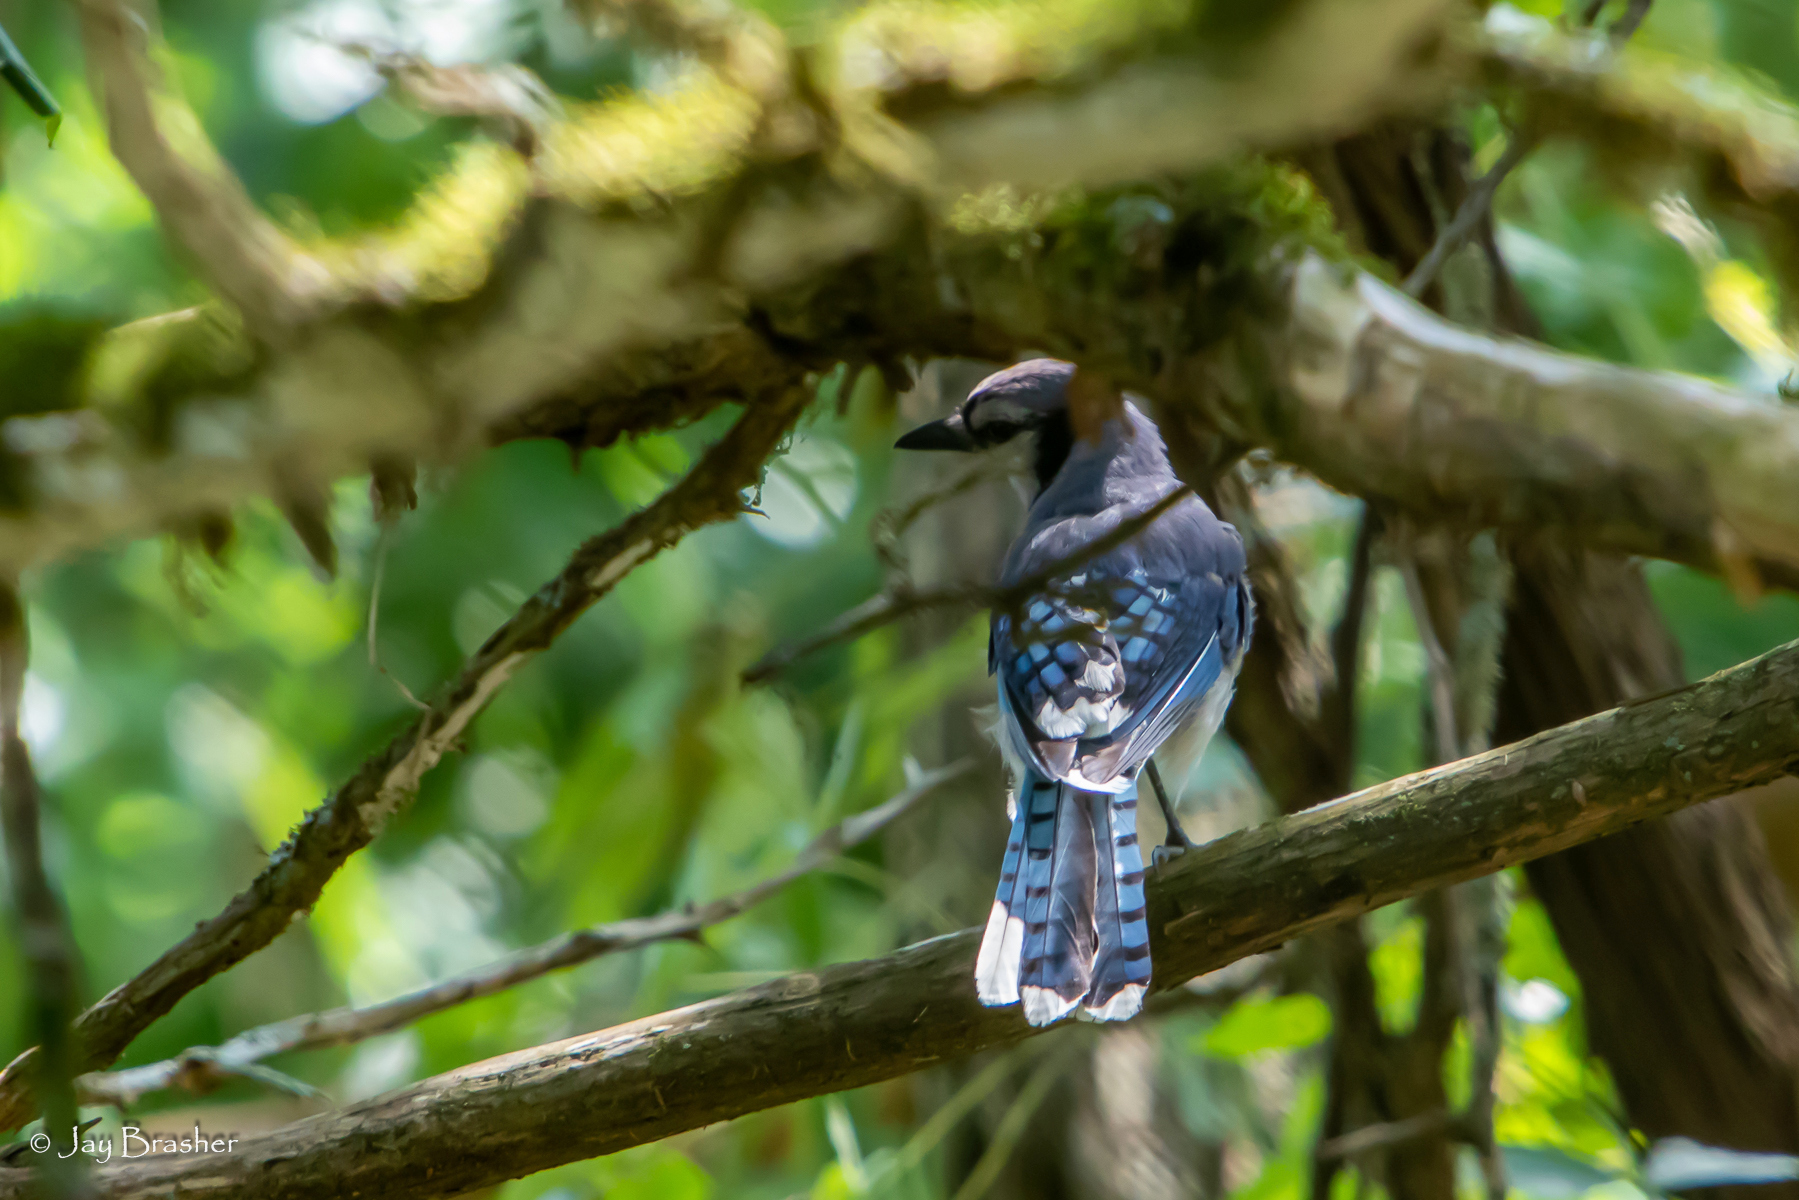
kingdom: Animalia
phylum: Chordata
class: Aves
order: Passeriformes
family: Corvidae
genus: Cyanocitta
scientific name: Cyanocitta cristata
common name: Blue jay
